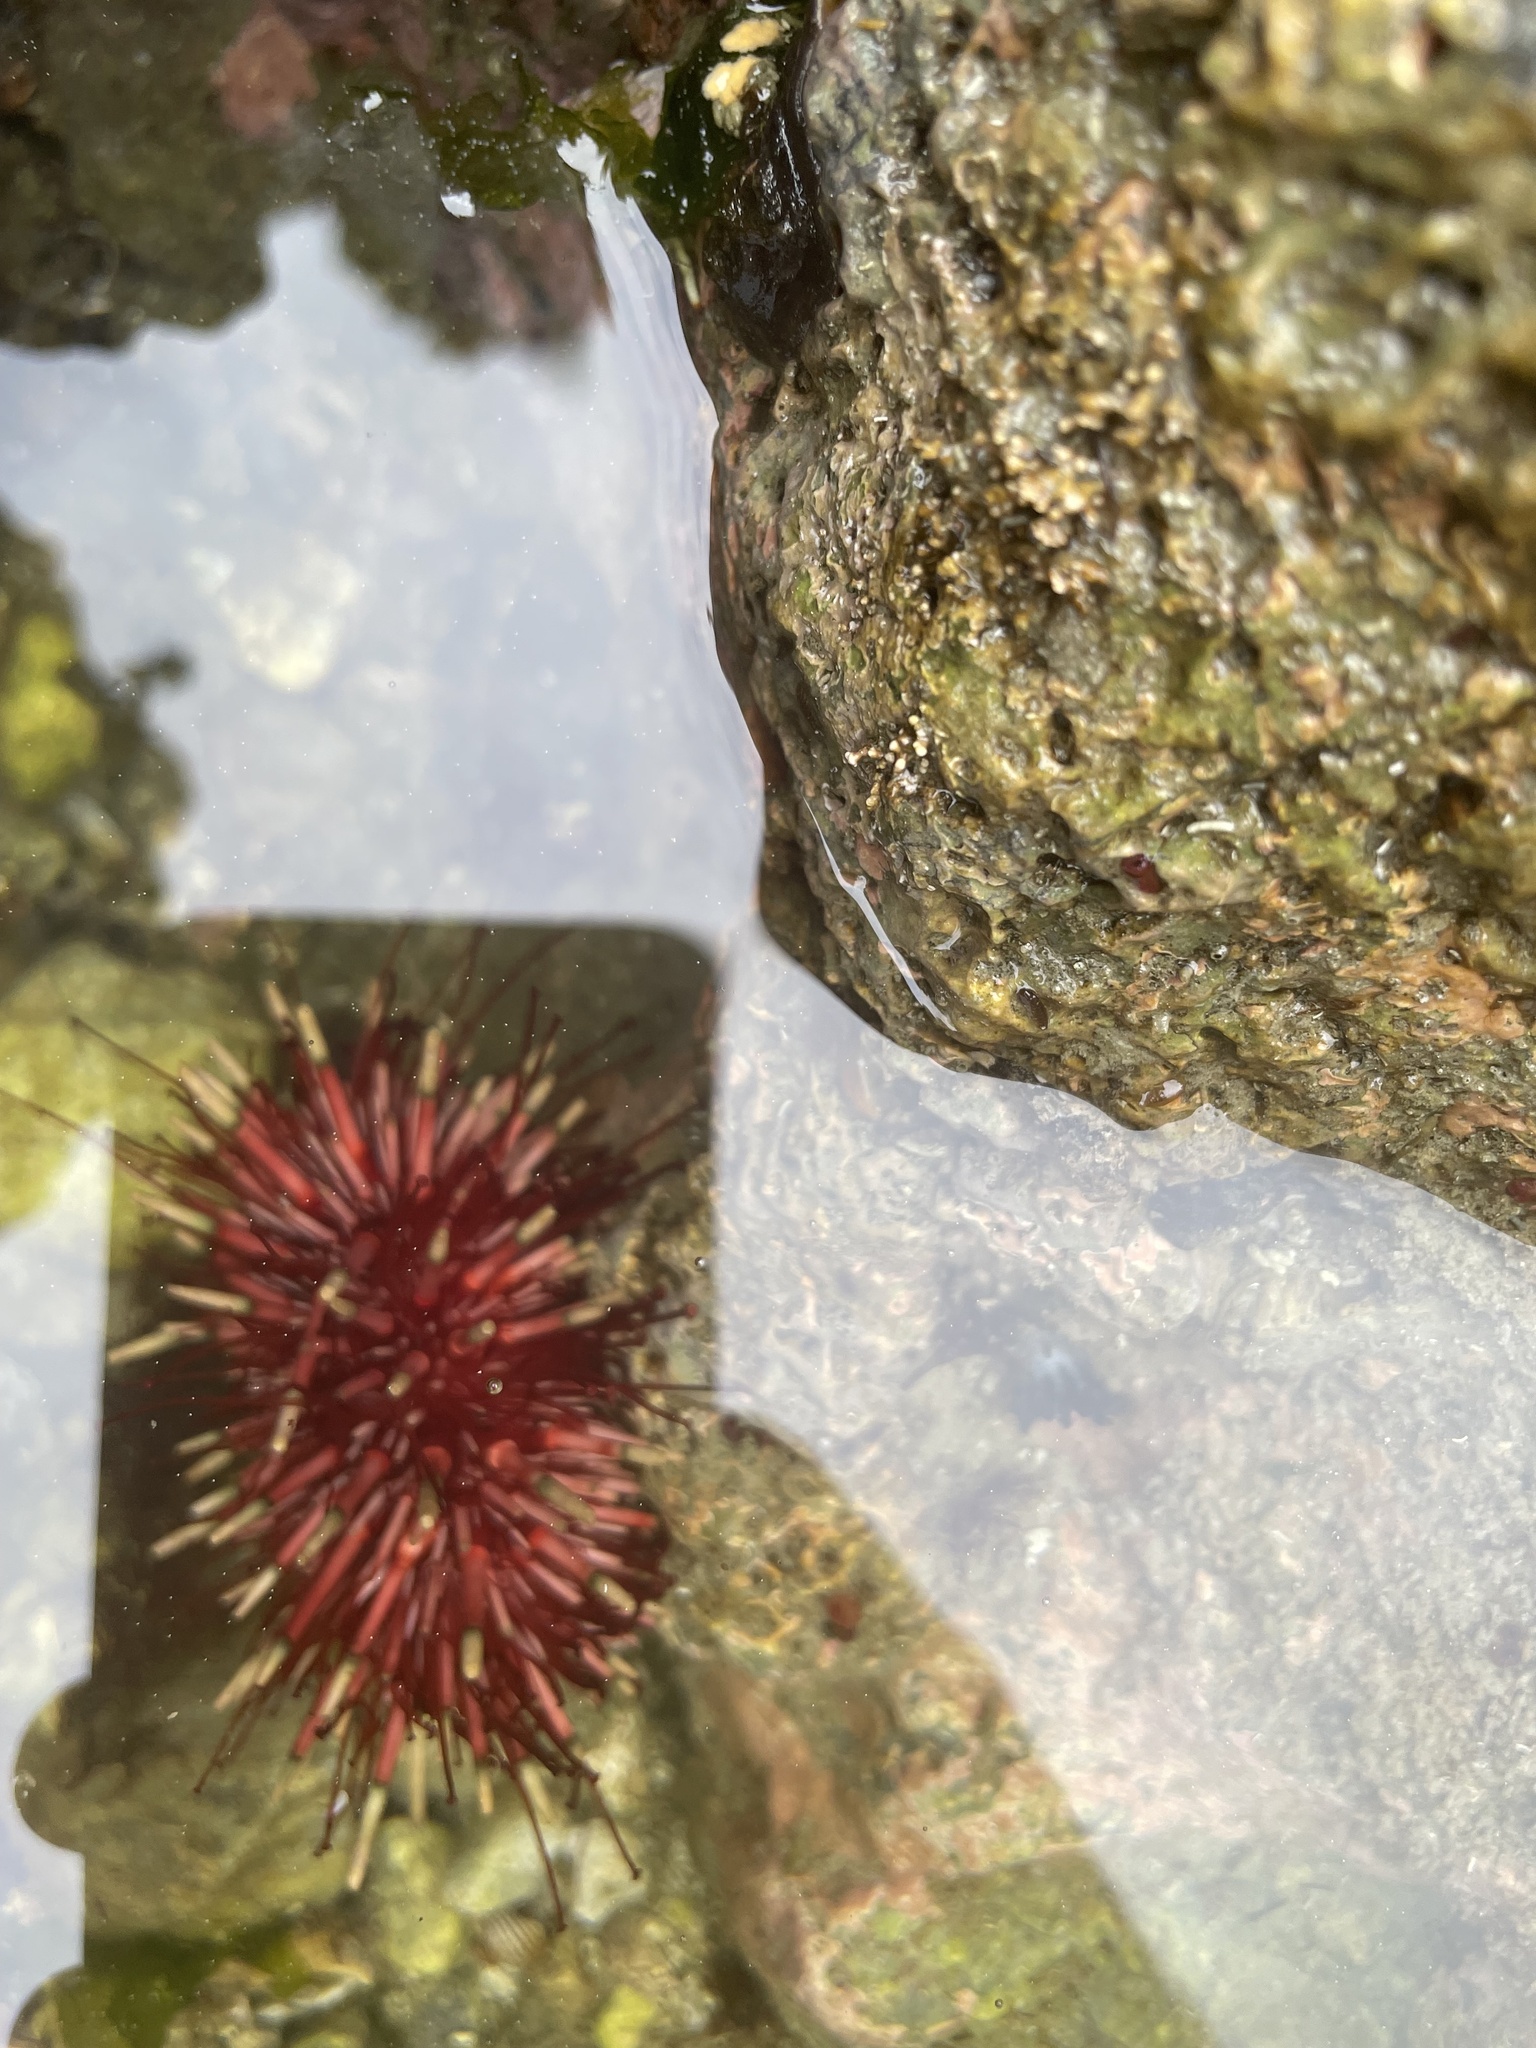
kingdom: Animalia
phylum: Echinodermata
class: Echinoidea
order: Camarodonta
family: Strongylocentrotidae
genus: Mesocentrotus
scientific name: Mesocentrotus franciscanus
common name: Red sea urchin
